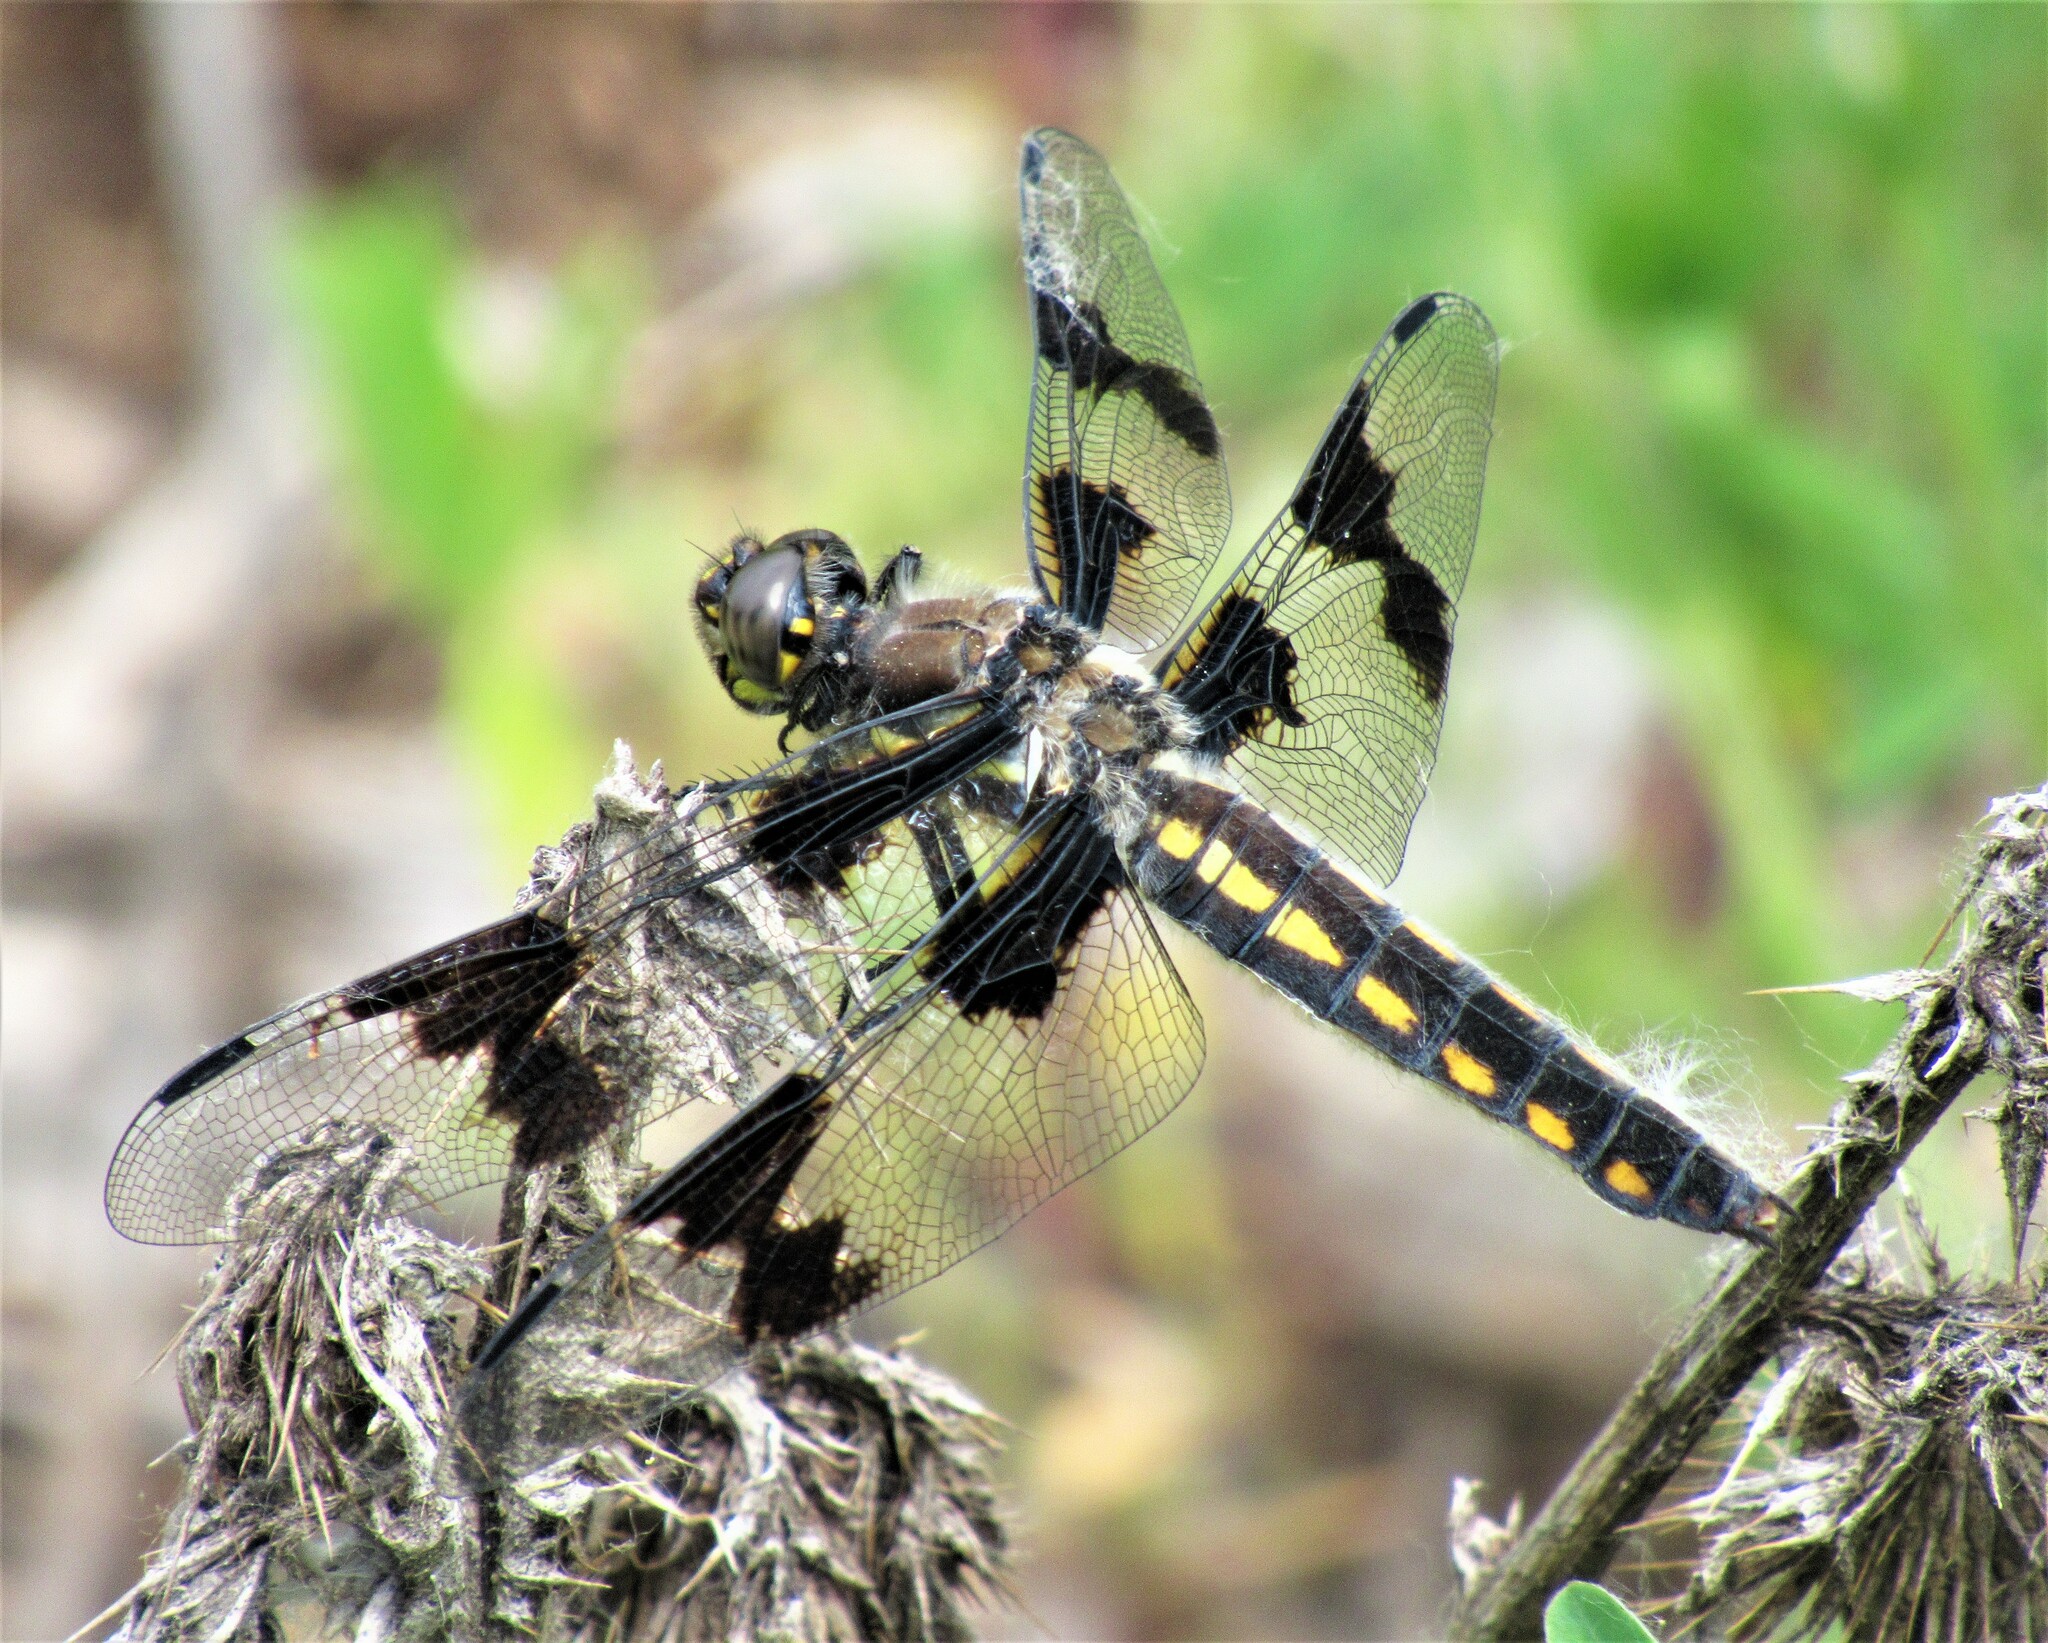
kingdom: Animalia
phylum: Arthropoda
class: Insecta
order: Odonata
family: Libellulidae
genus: Libellula
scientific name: Libellula forensis
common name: Eight-spotted skimmer
